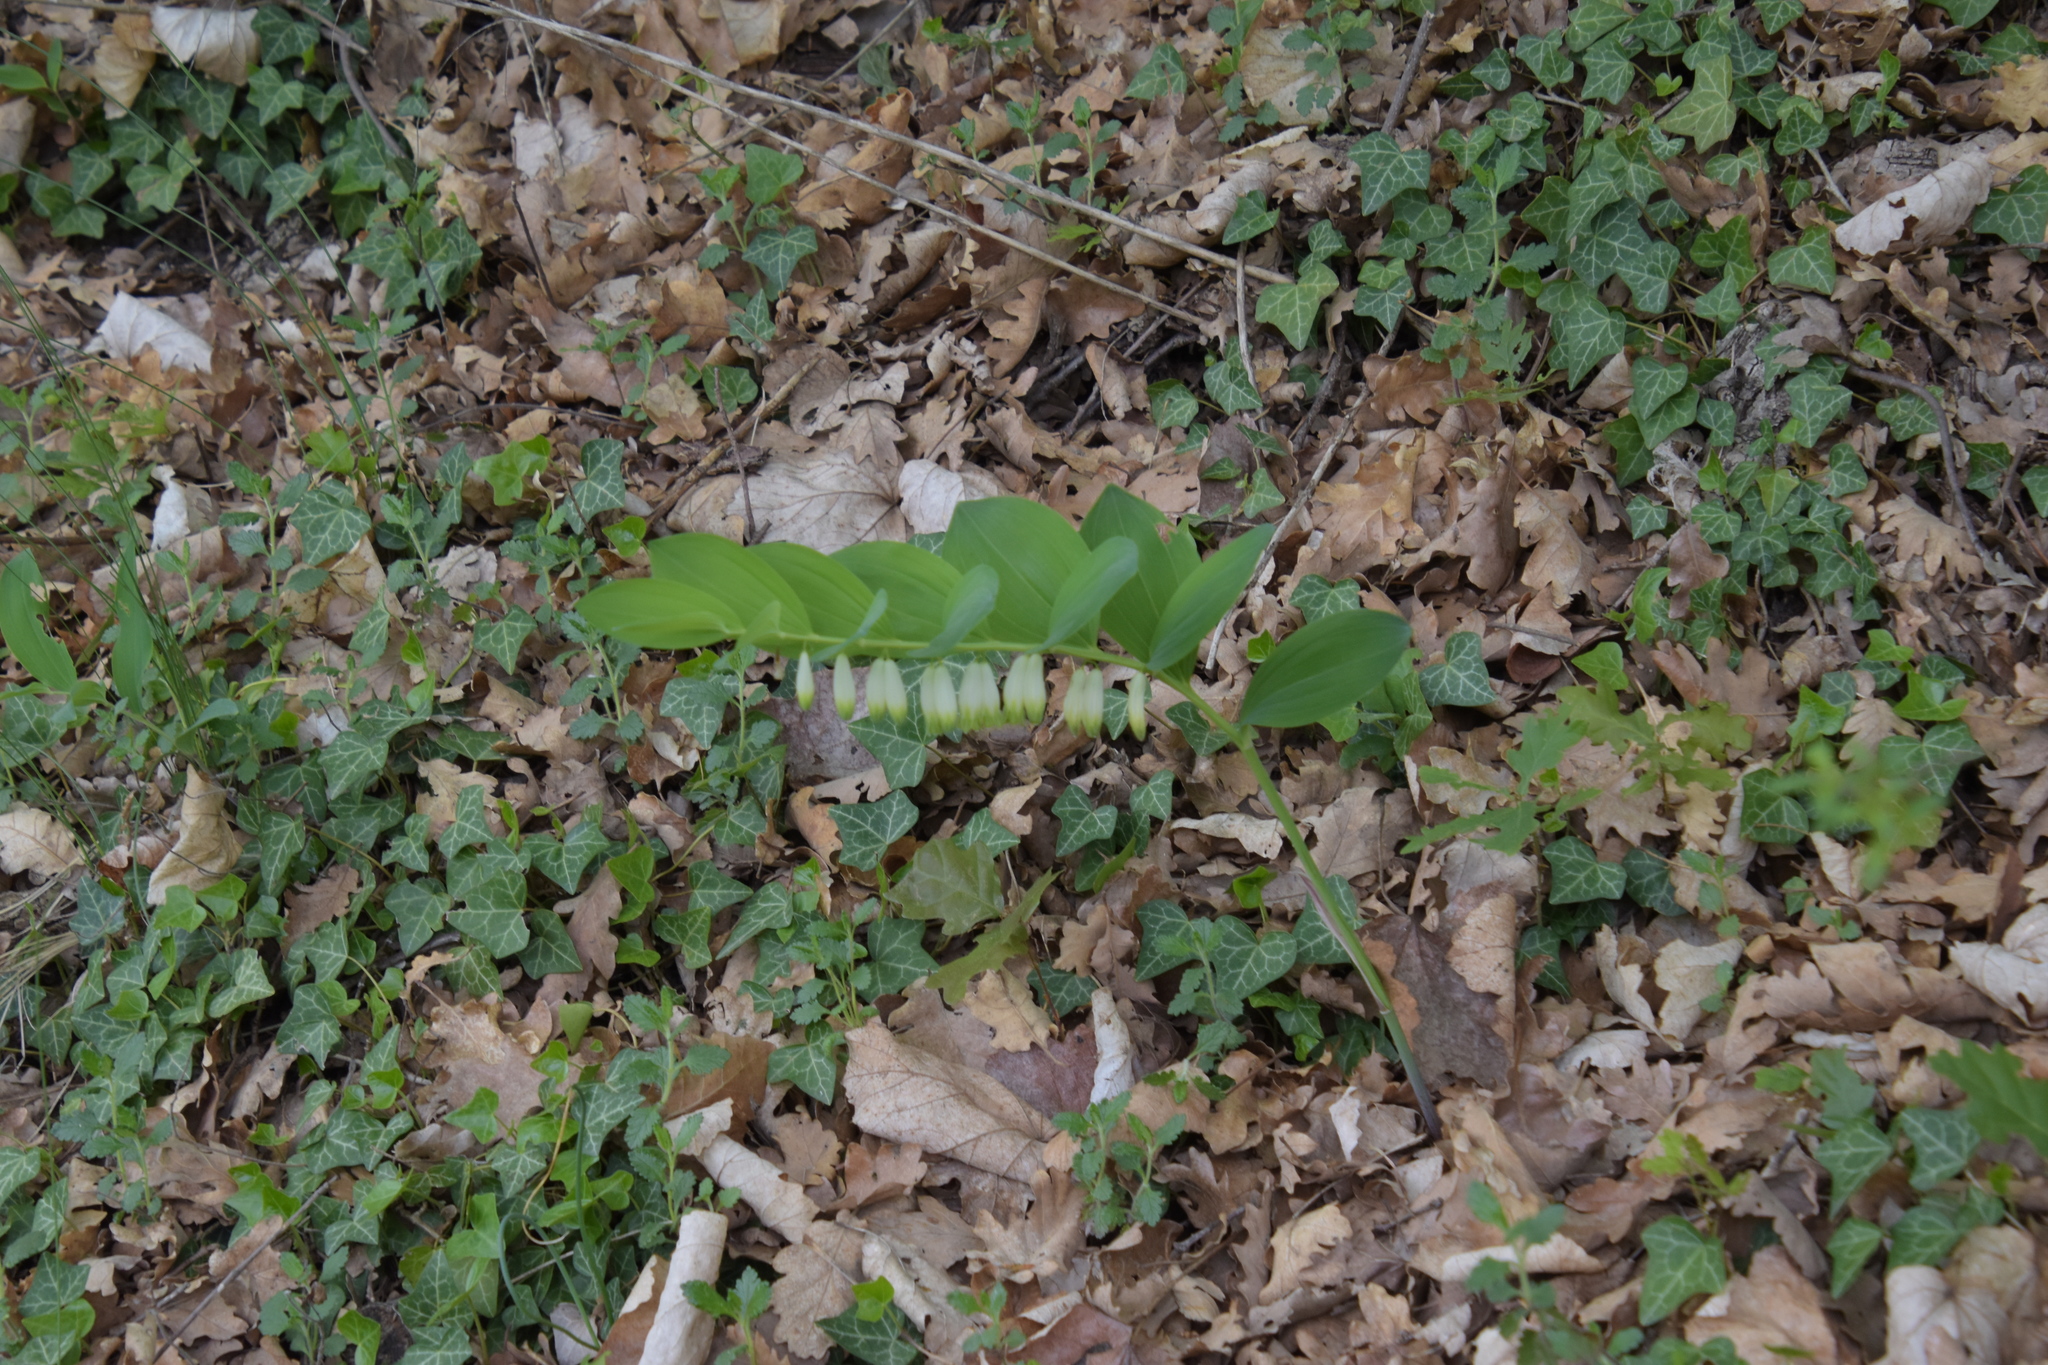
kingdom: Plantae
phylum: Tracheophyta
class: Liliopsida
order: Asparagales
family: Asparagaceae
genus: Polygonatum
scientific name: Polygonatum odoratum
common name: Angular solomon's-seal
